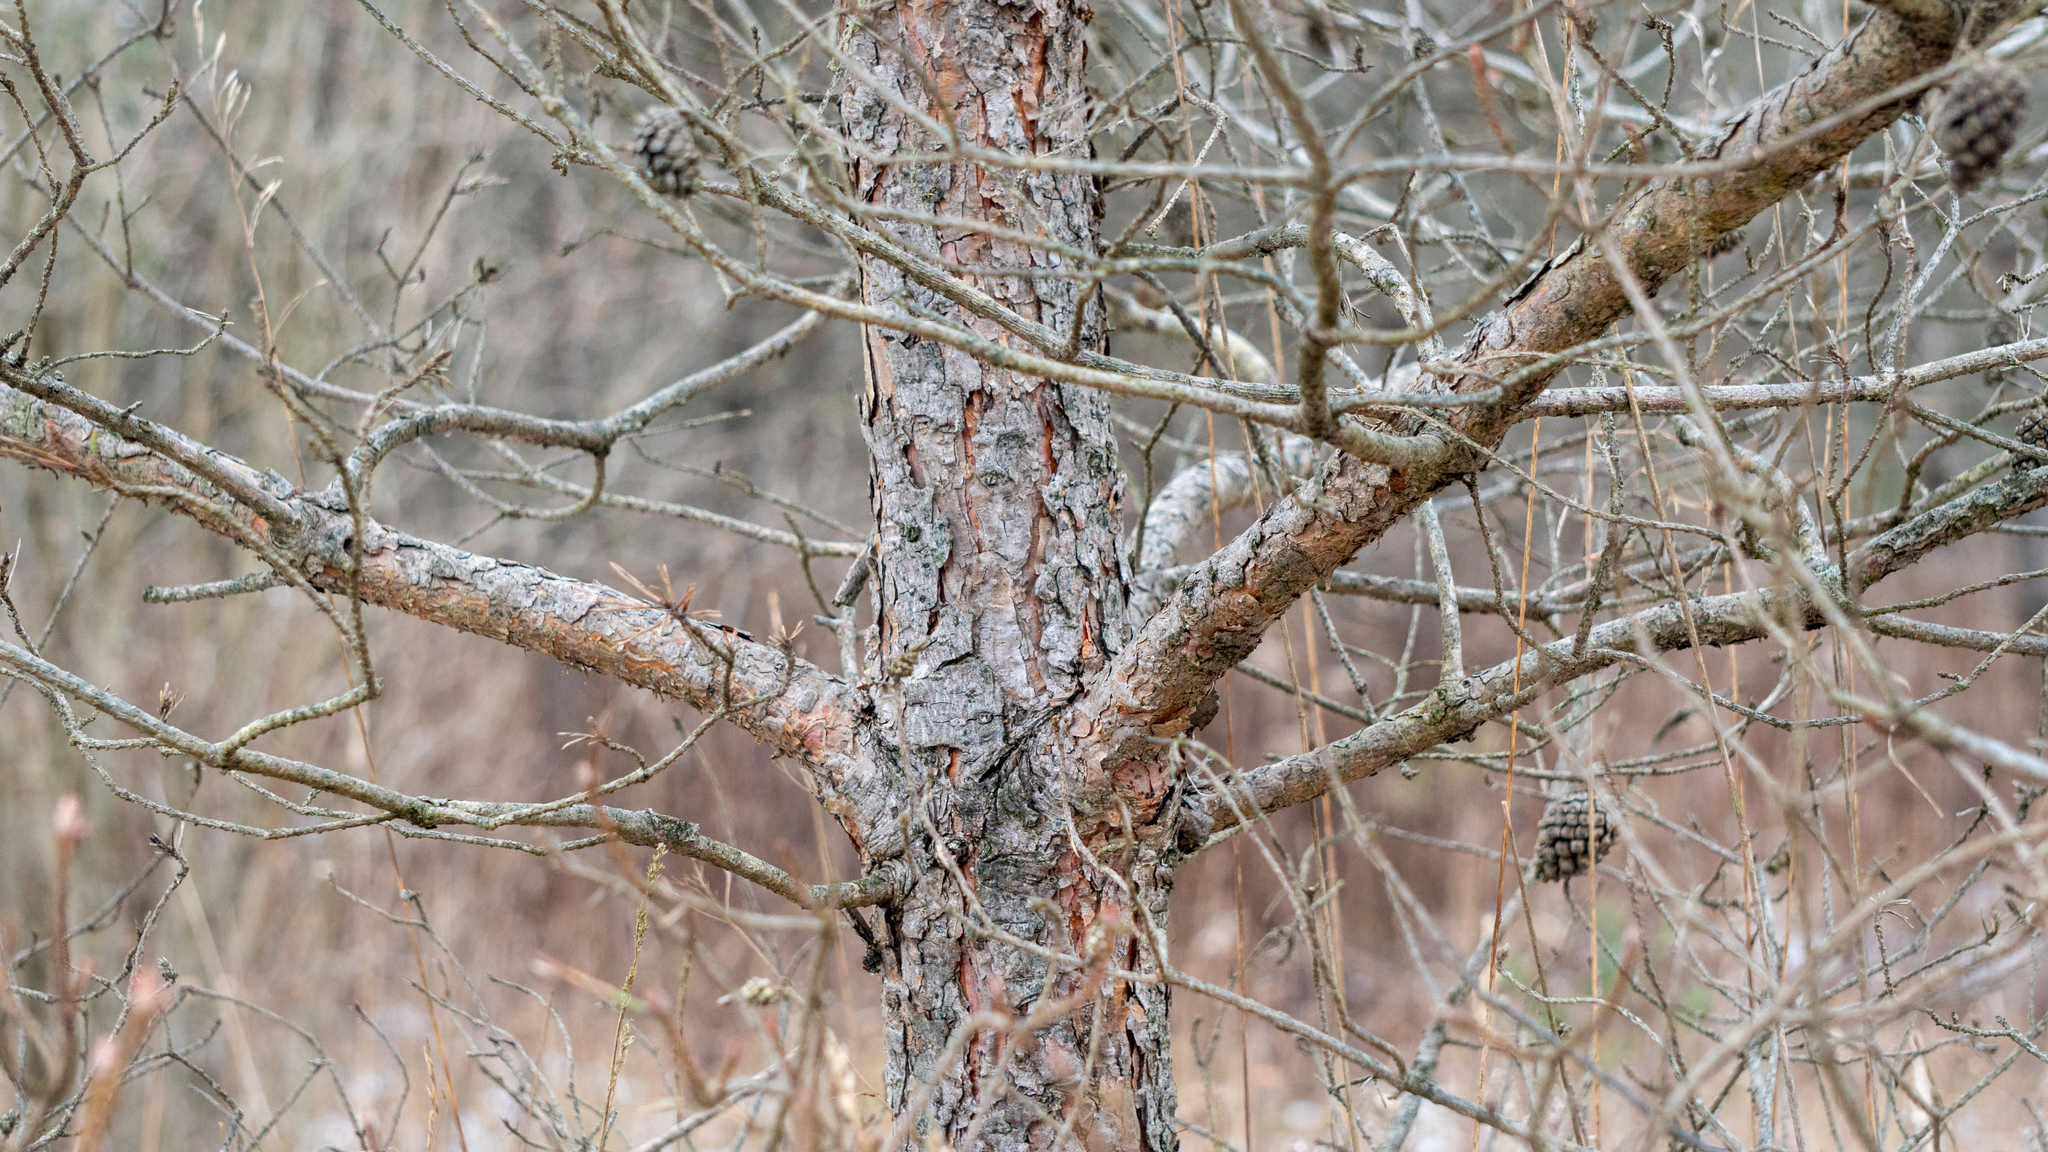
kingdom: Plantae
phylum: Tracheophyta
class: Pinopsida
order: Pinales
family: Pinaceae
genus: Pinus
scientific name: Pinus sylvestris
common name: Scots pine
